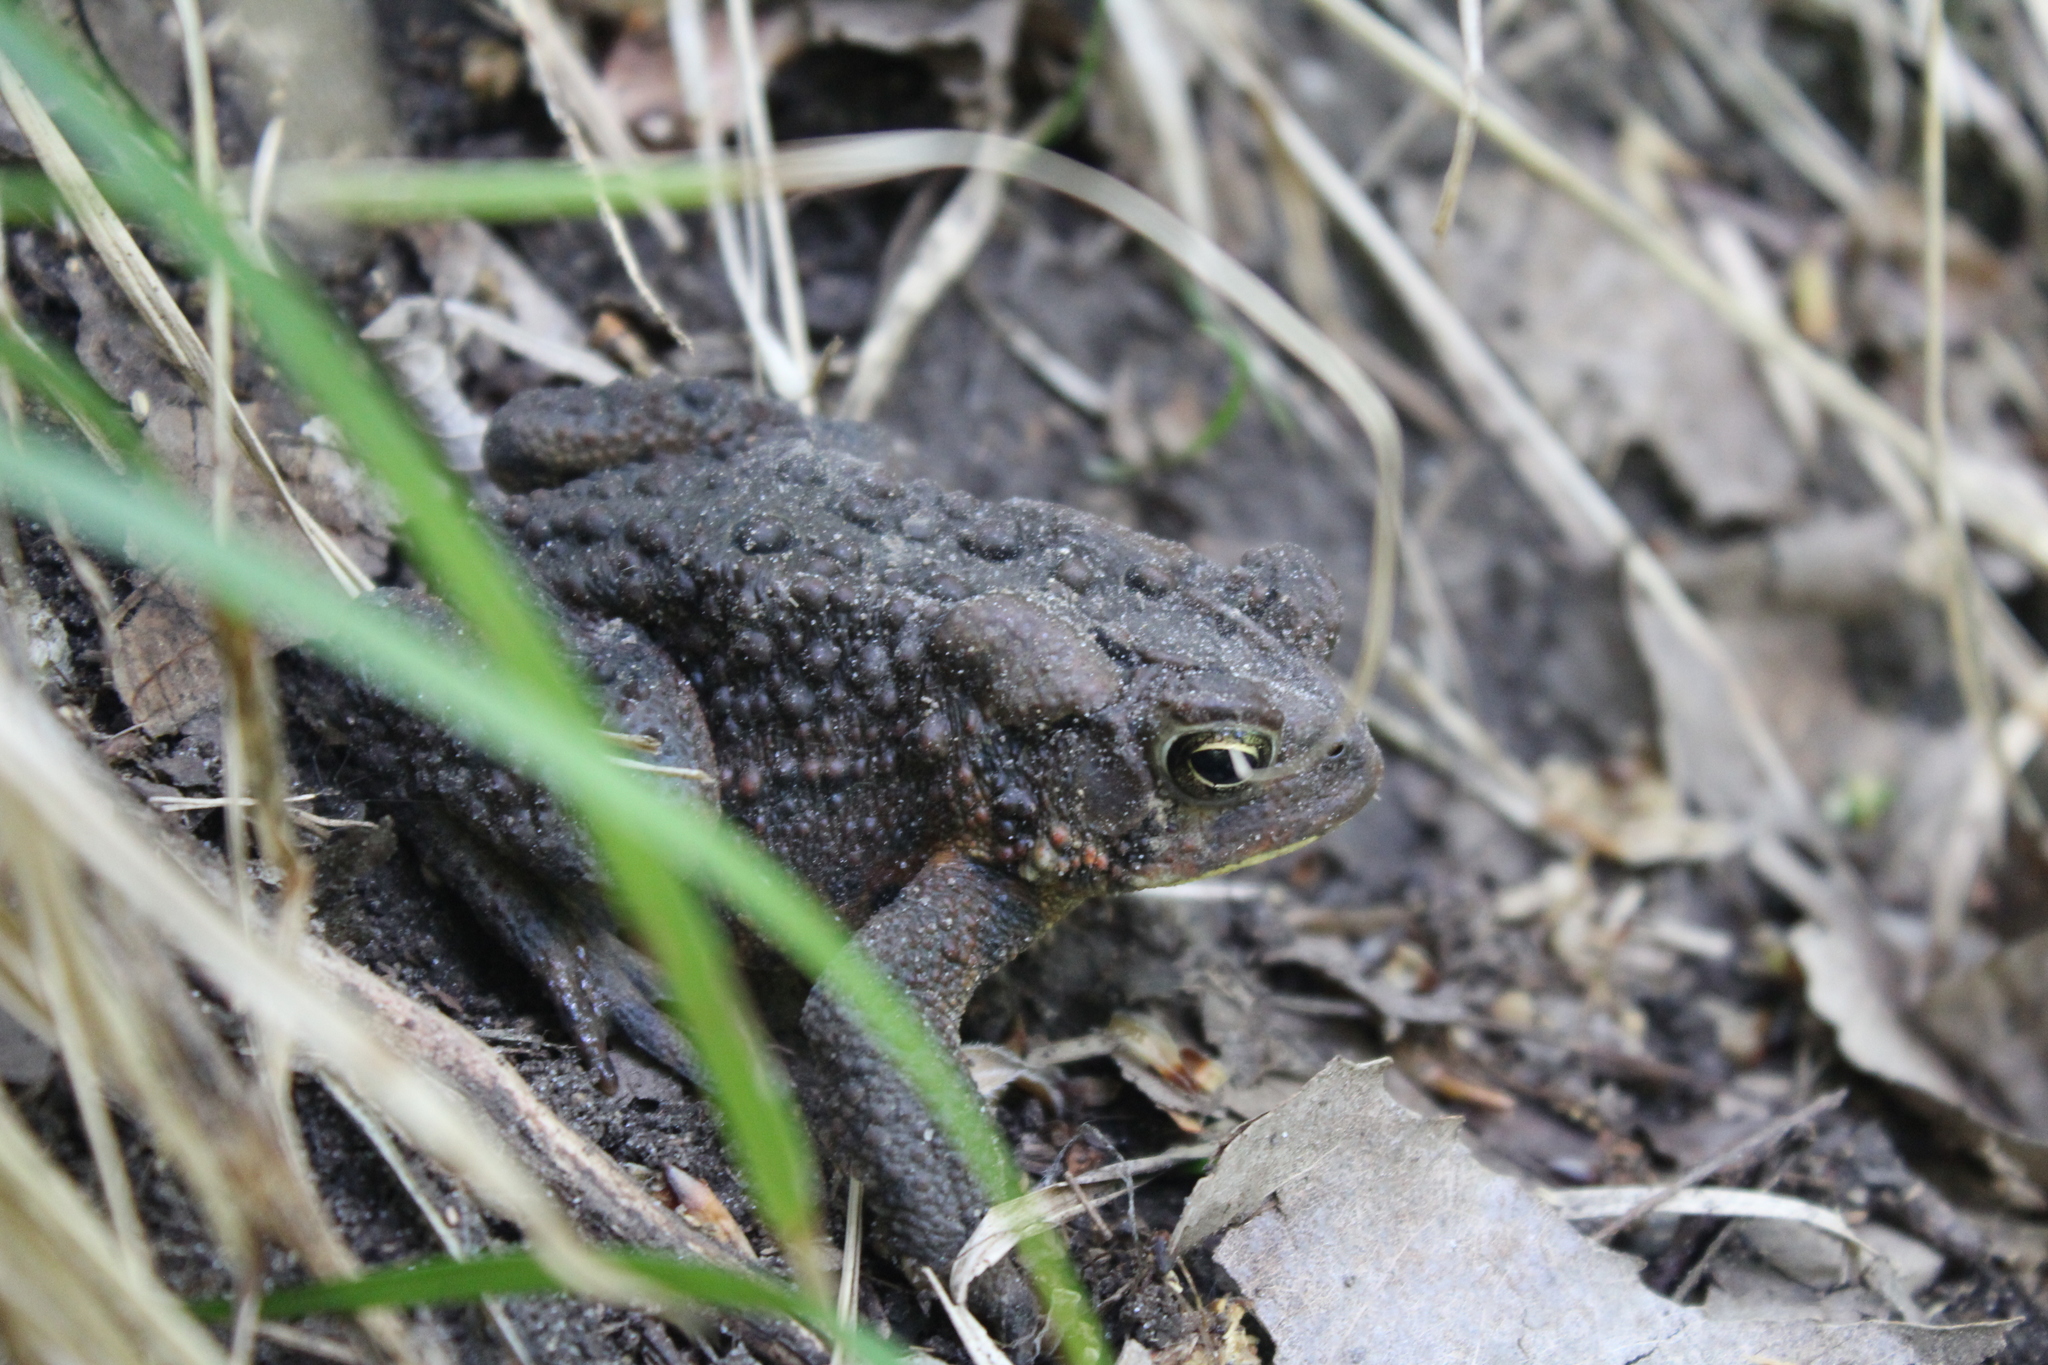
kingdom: Animalia
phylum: Chordata
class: Amphibia
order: Anura
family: Bufonidae
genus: Anaxyrus
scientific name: Anaxyrus americanus
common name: American toad
